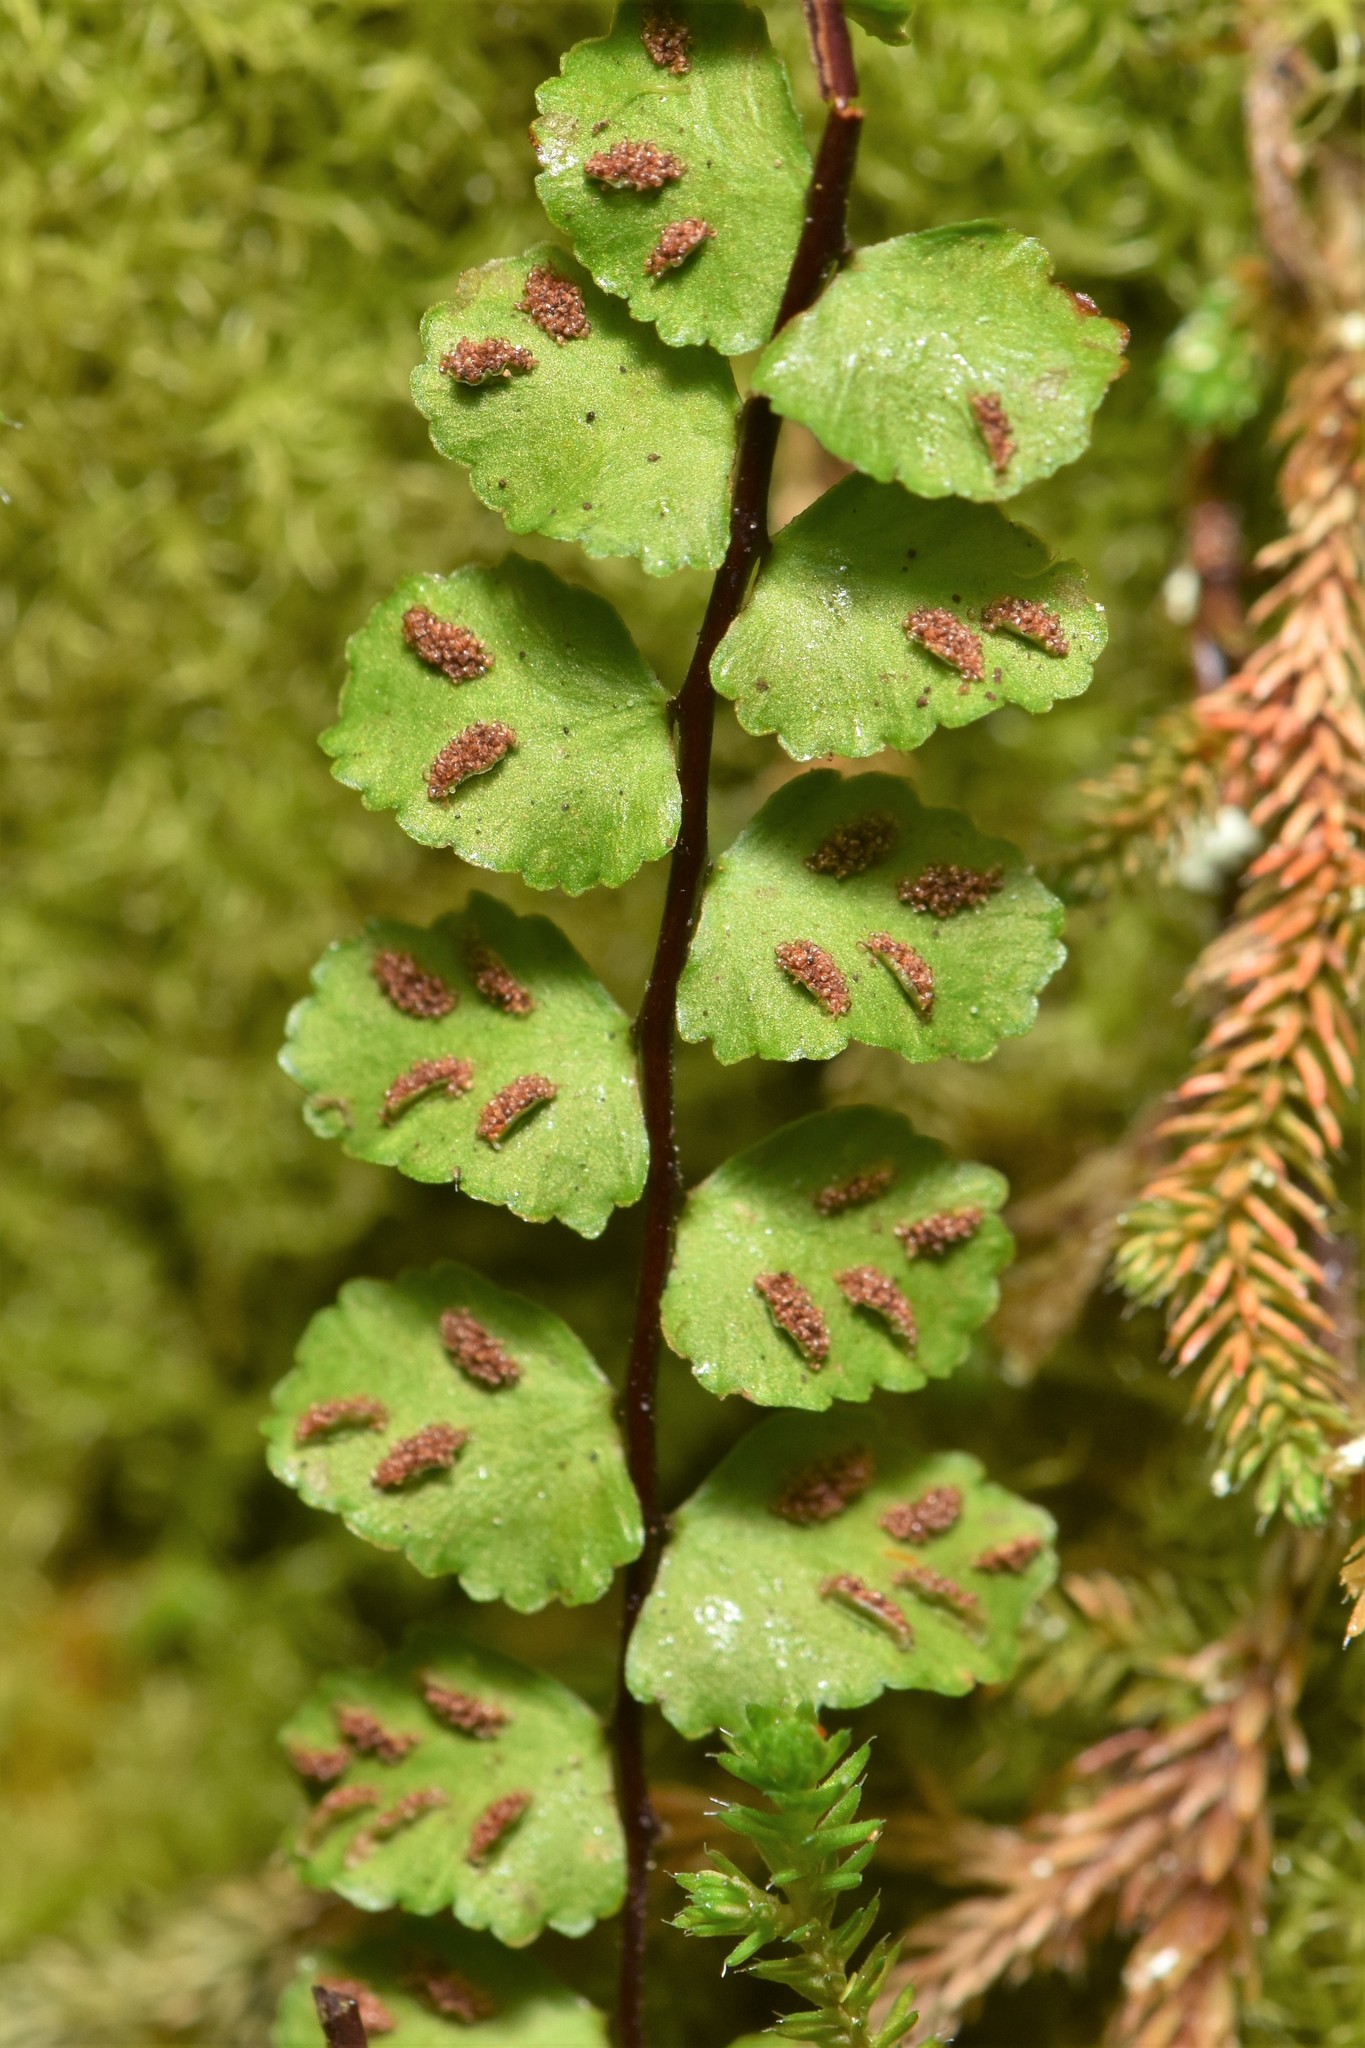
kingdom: Plantae
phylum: Tracheophyta
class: Polypodiopsida
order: Polypodiales
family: Aspleniaceae
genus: Asplenium
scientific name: Asplenium trichomanes
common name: Maidenhair spleenwort
